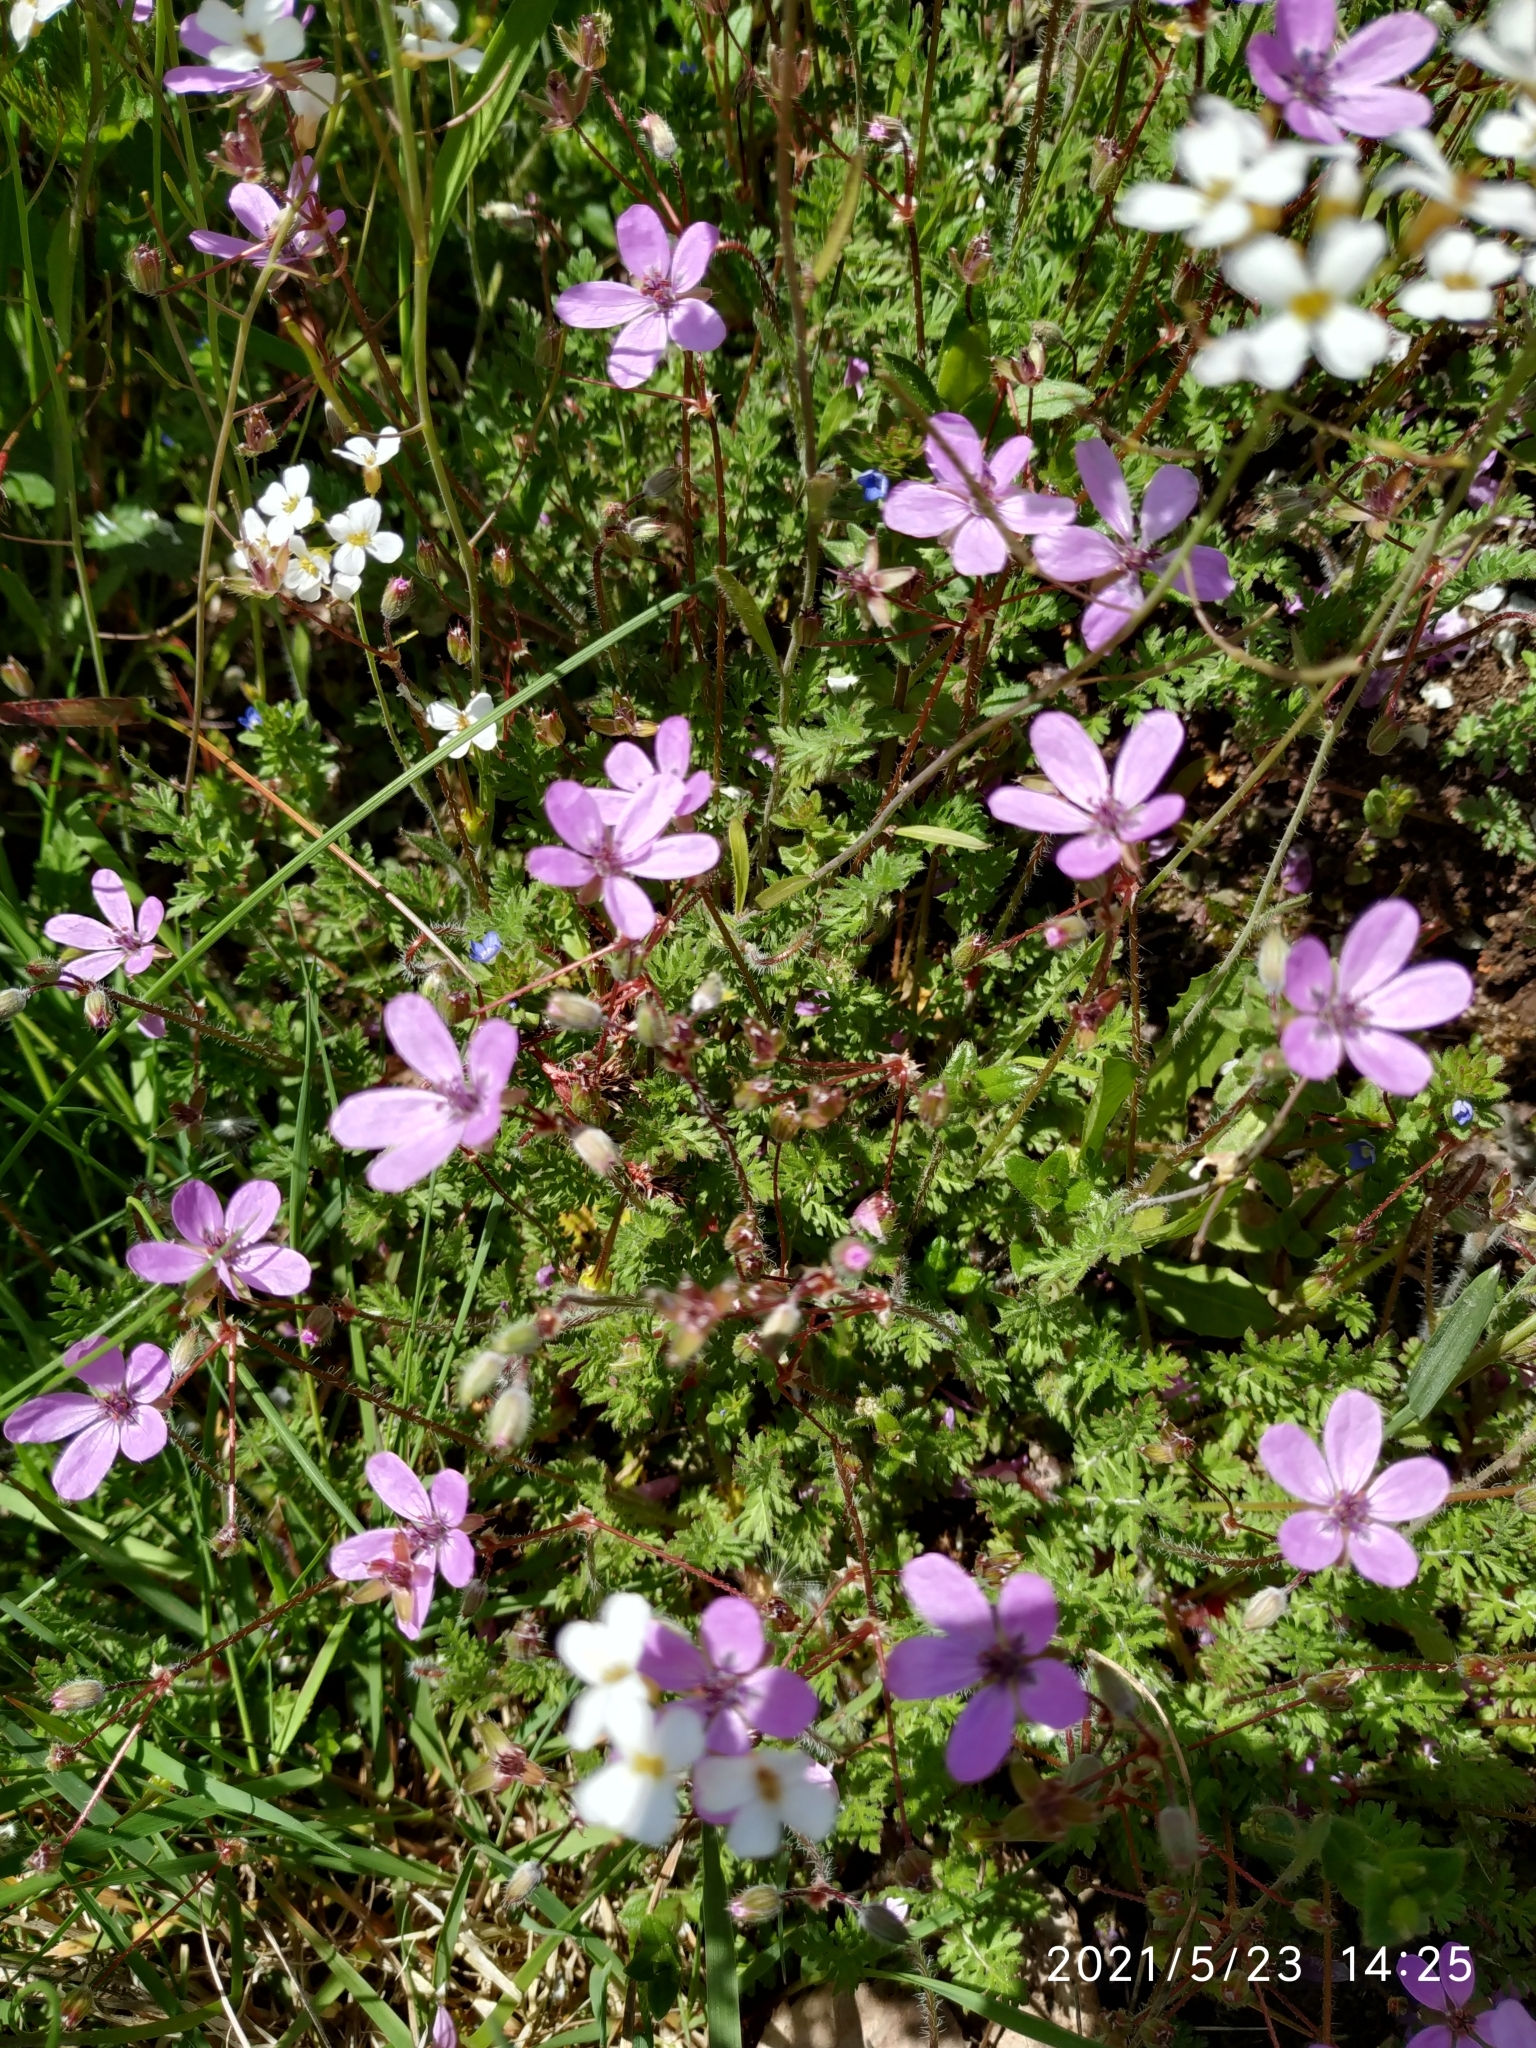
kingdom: Plantae
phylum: Tracheophyta
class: Magnoliopsida
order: Geraniales
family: Geraniaceae
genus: Erodium
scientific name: Erodium cicutarium
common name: Common stork's-bill
